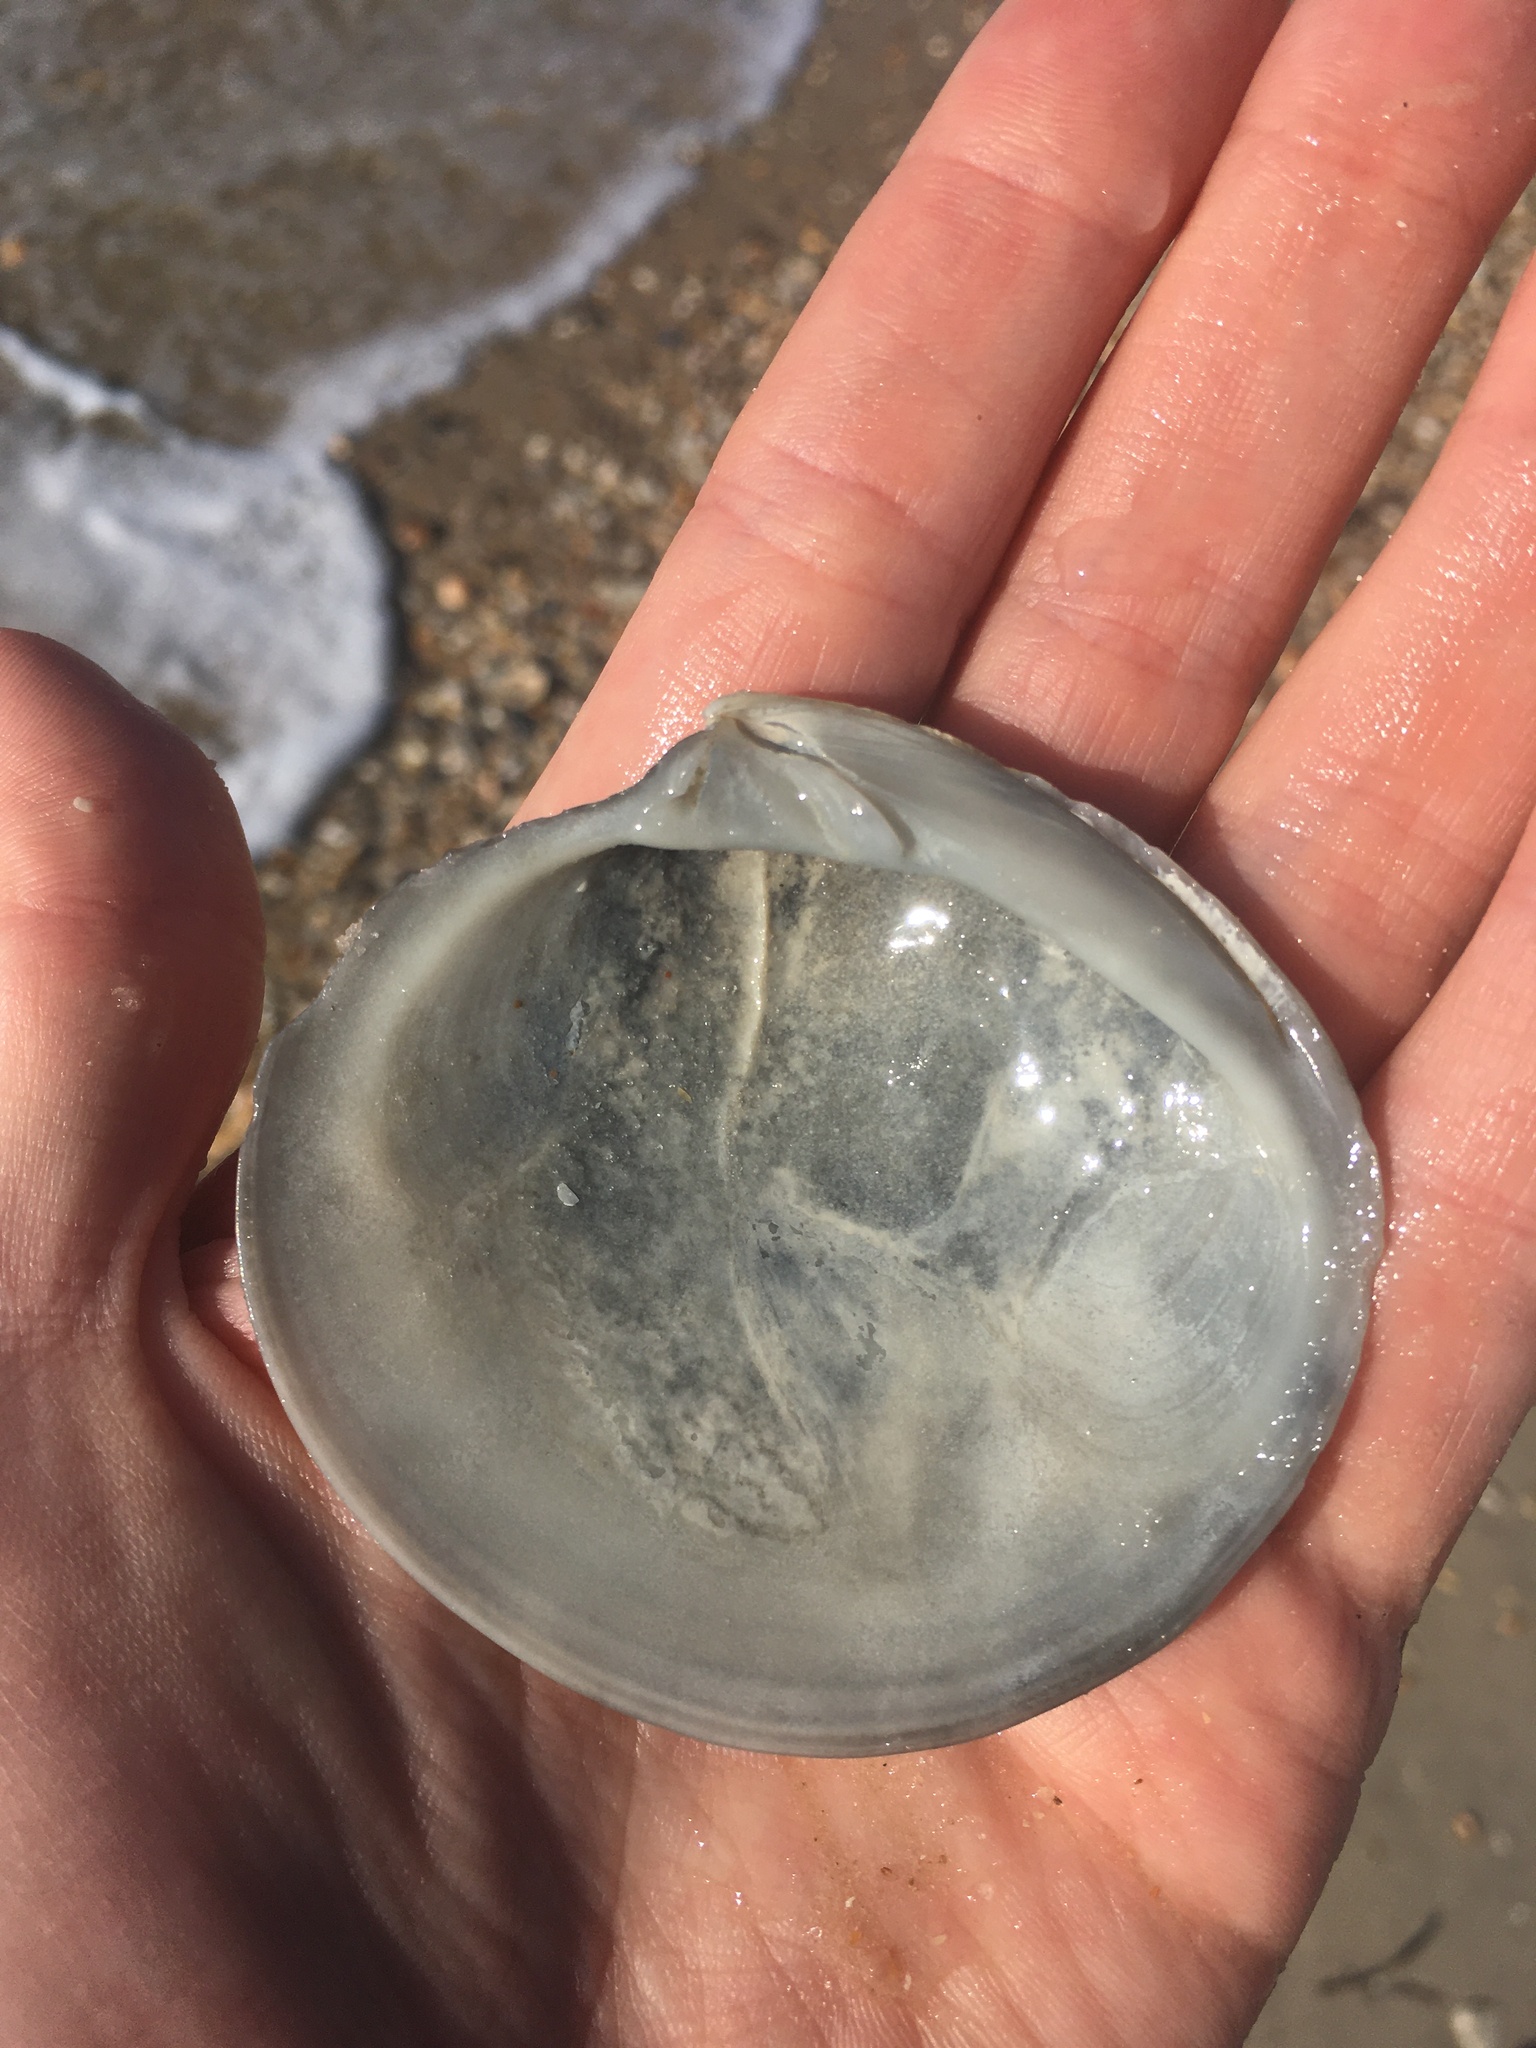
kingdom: Animalia
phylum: Mollusca
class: Bivalvia
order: Venerida
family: Veneridae
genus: Dosinia
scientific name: Dosinia discus
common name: Disk dosinia
